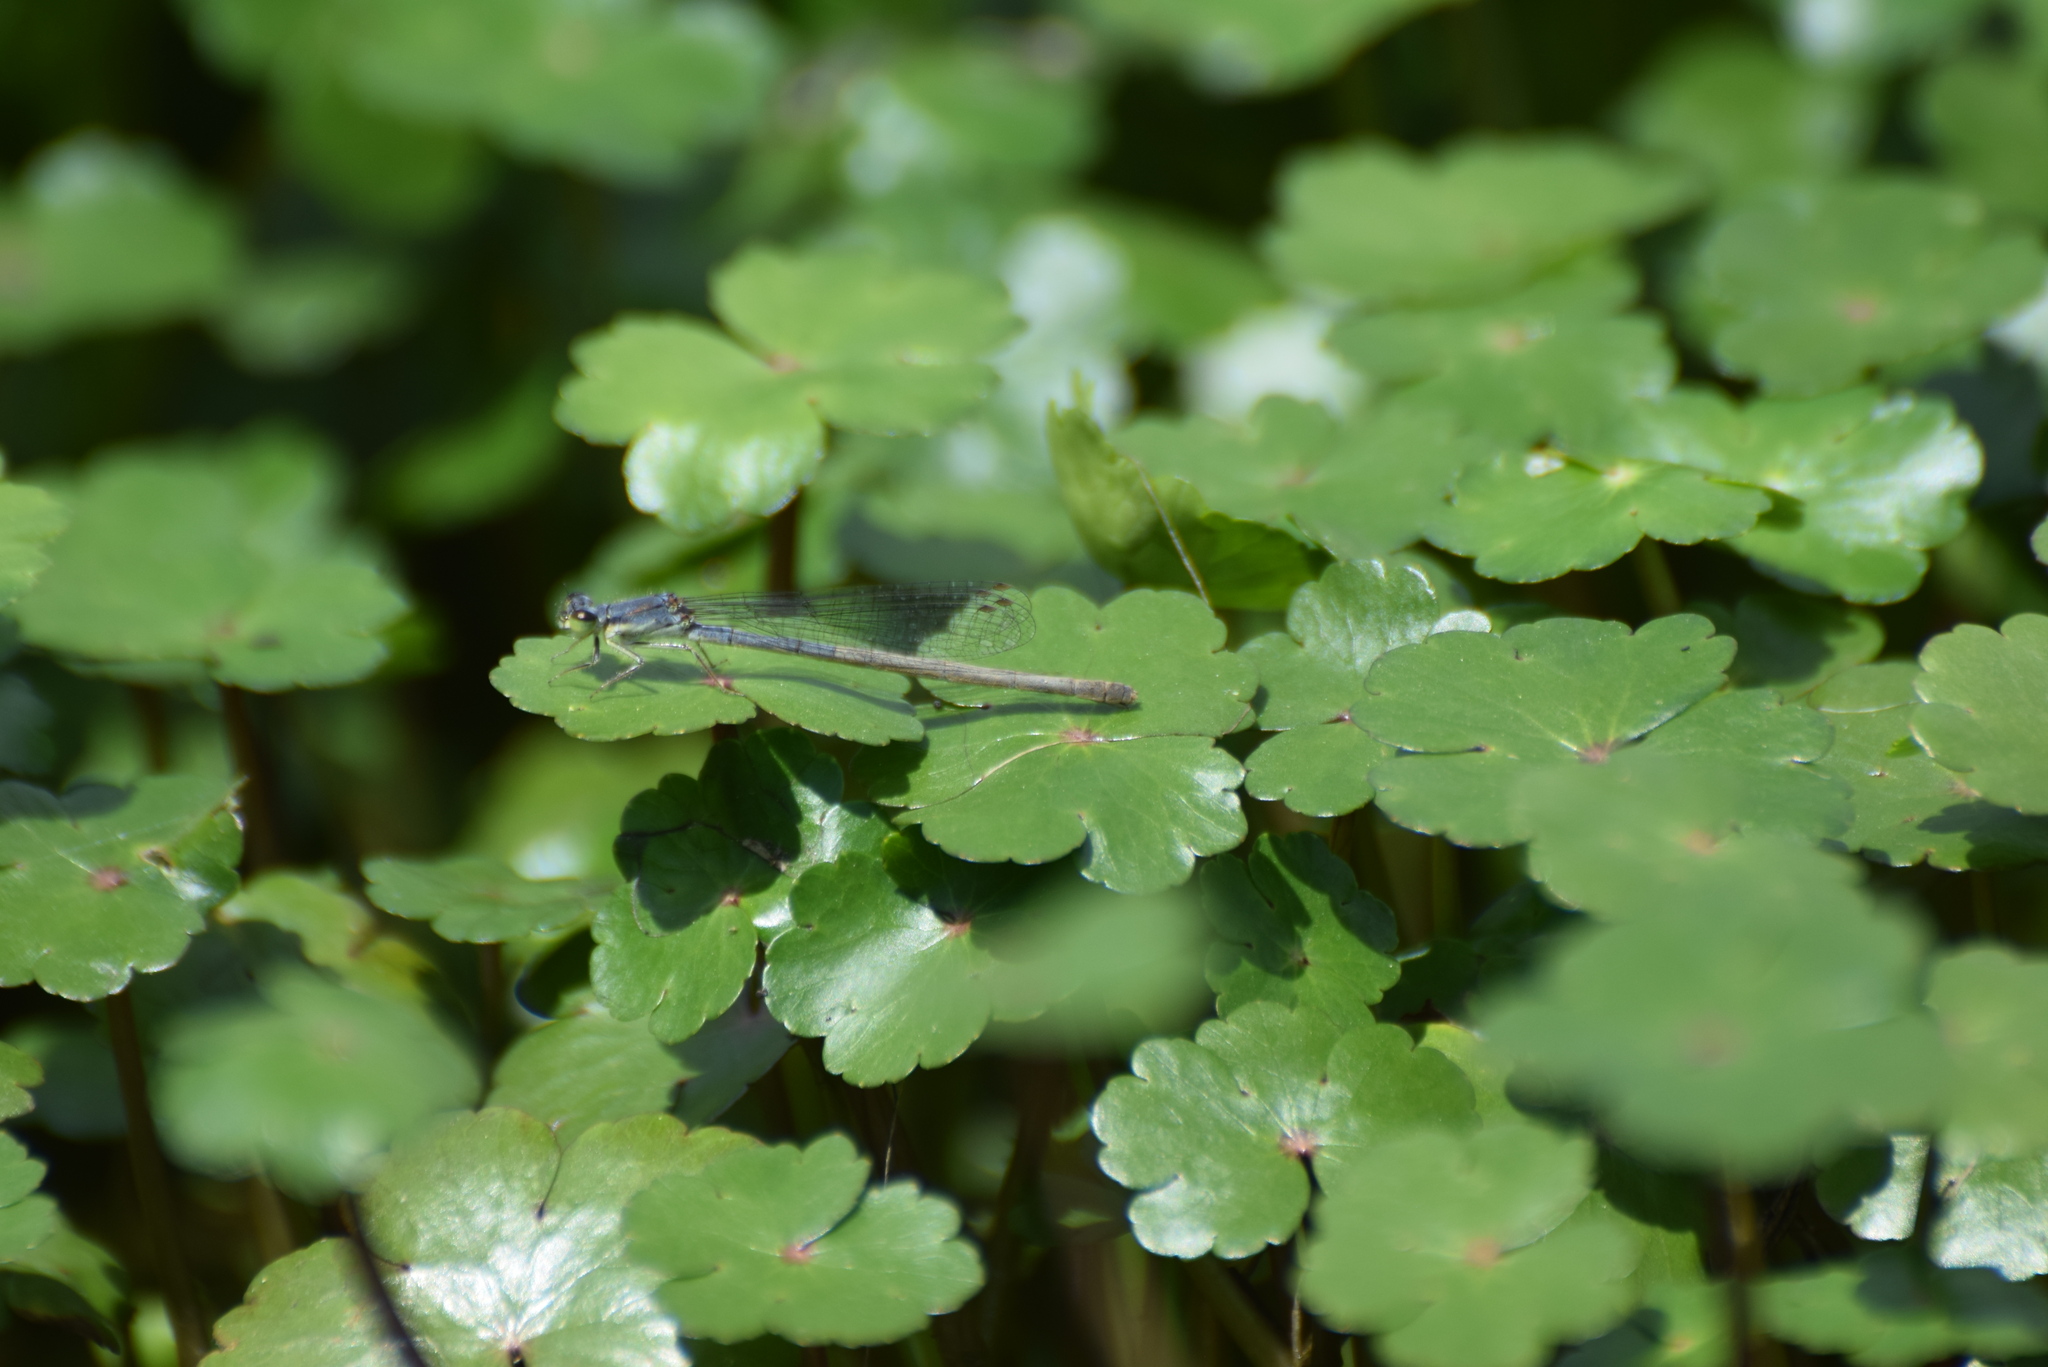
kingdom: Animalia
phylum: Arthropoda
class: Insecta
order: Odonata
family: Coenagrionidae
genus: Ischnura
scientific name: Ischnura posita
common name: Fragile forktail
